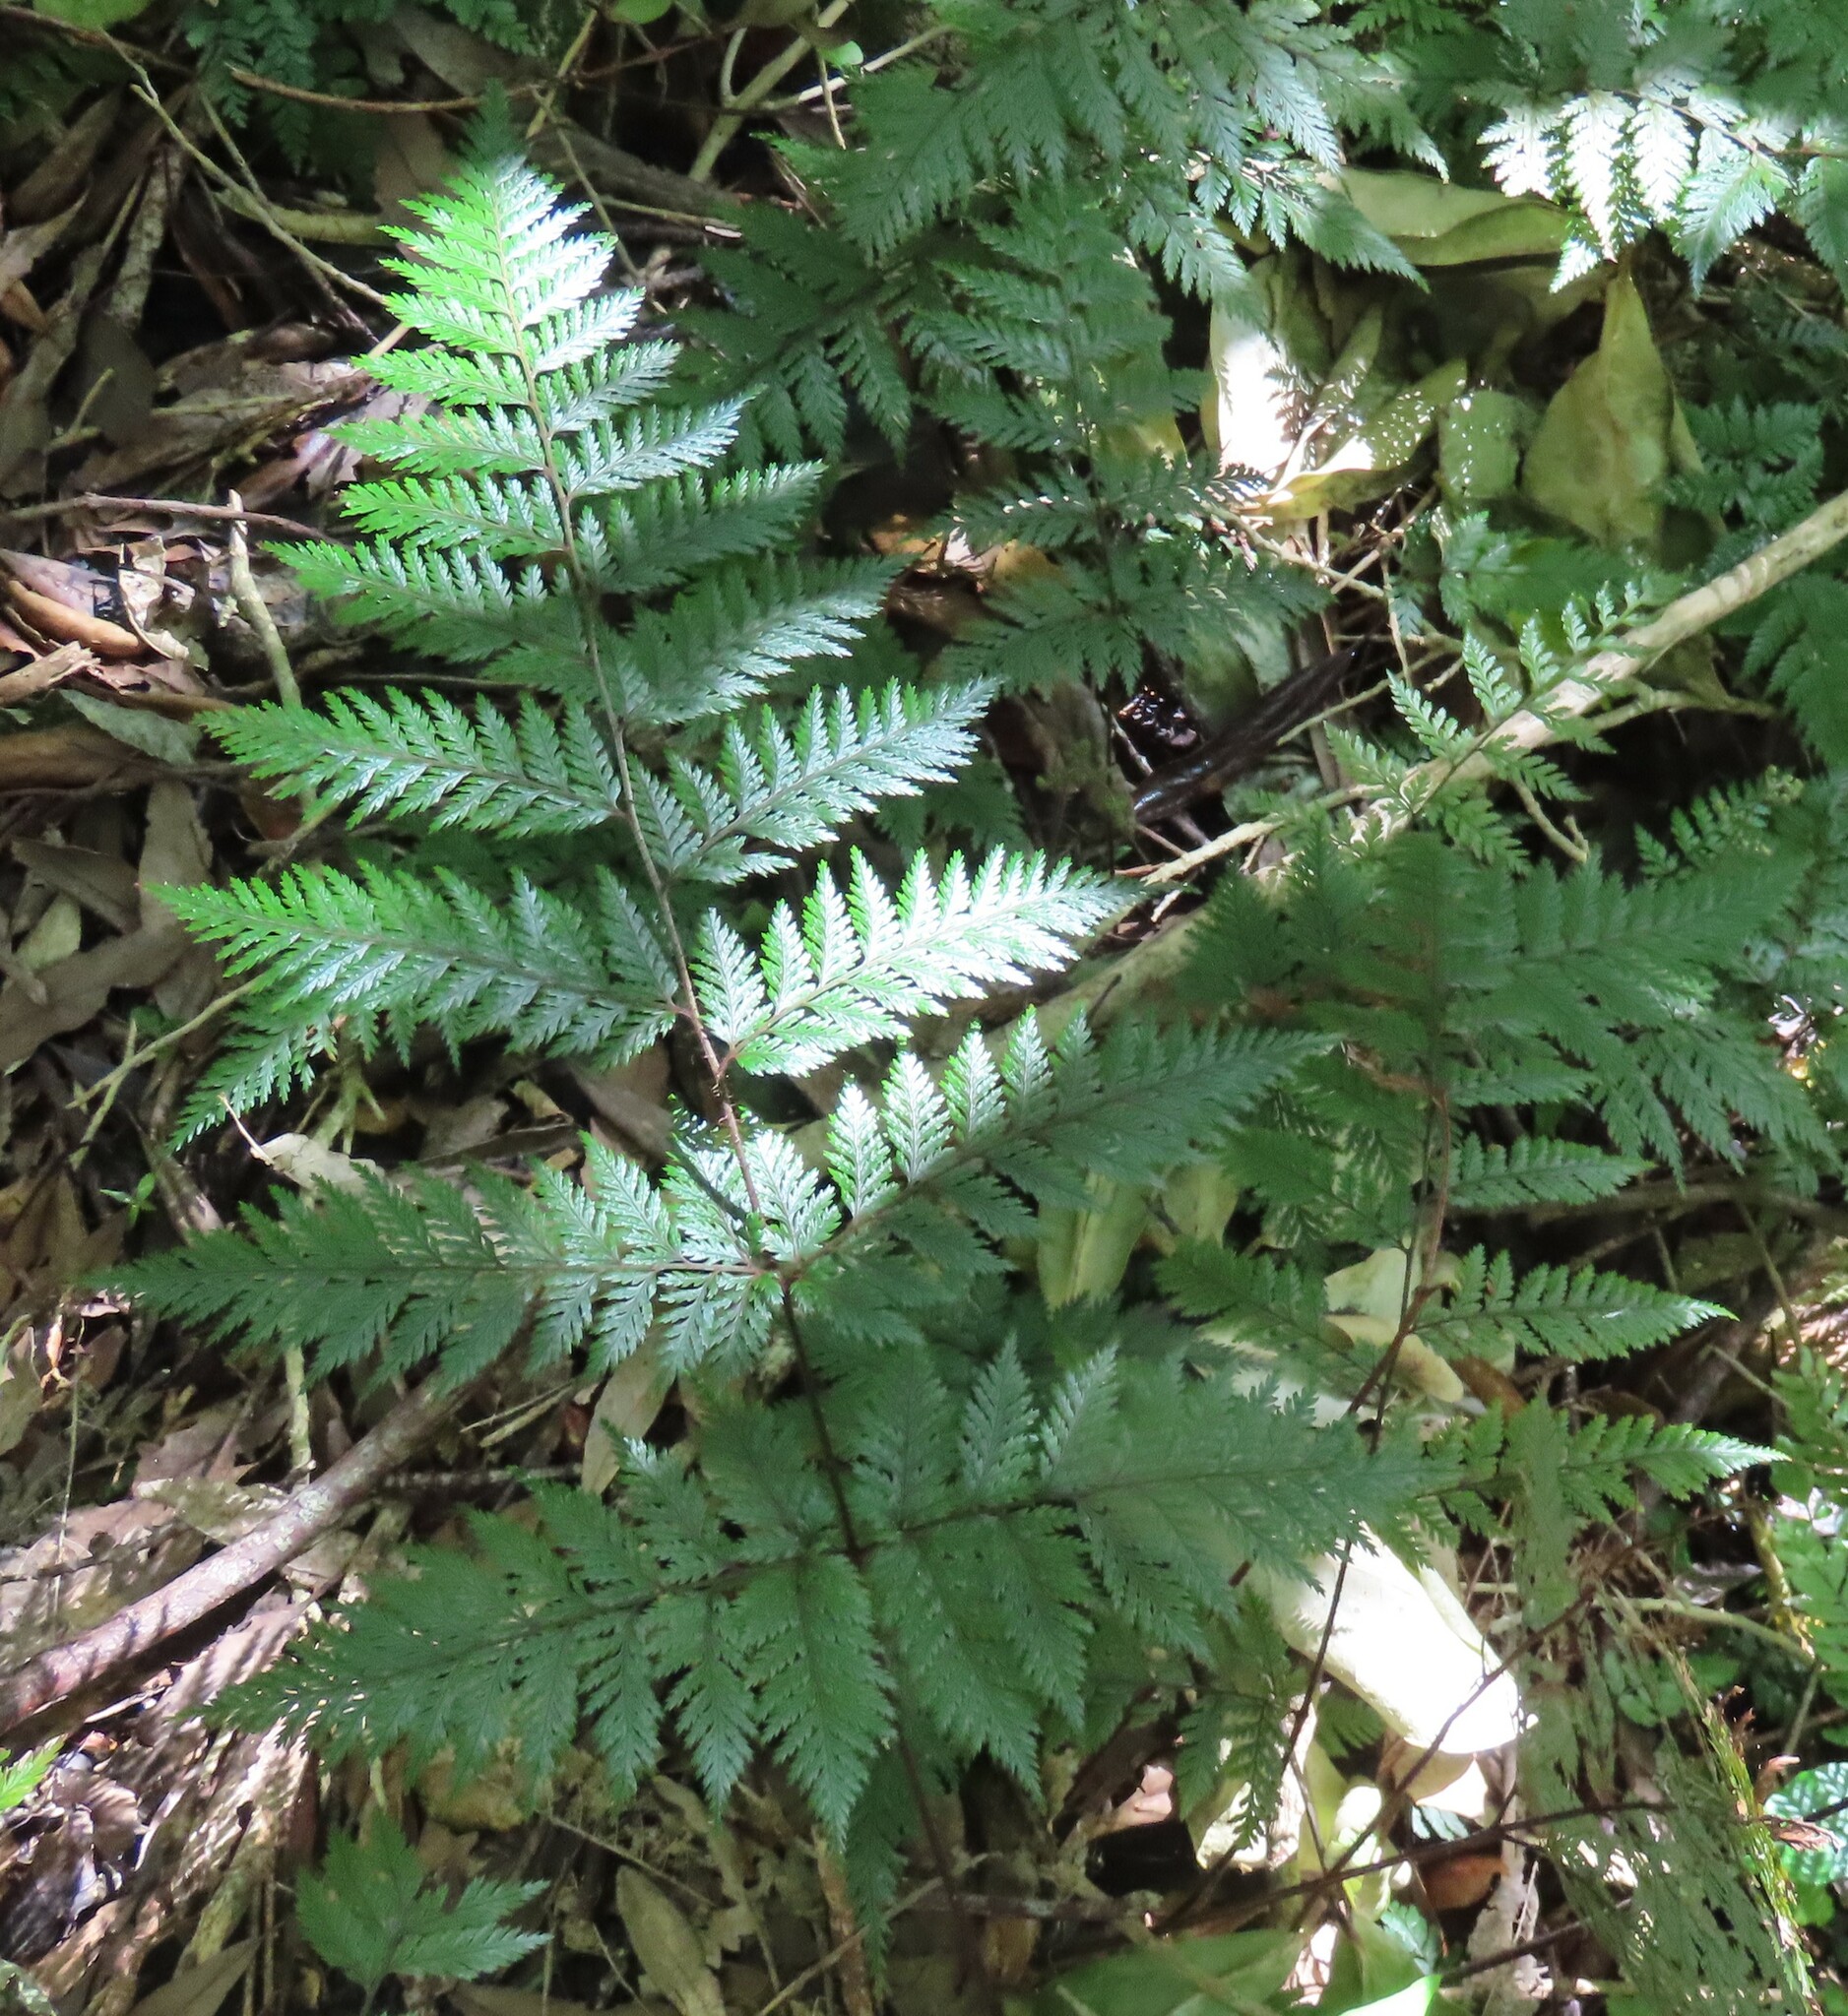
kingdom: Plantae
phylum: Tracheophyta
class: Polypodiopsida
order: Polypodiales
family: Dryopteridaceae
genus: Lastreopsis
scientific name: Lastreopsis hispida
